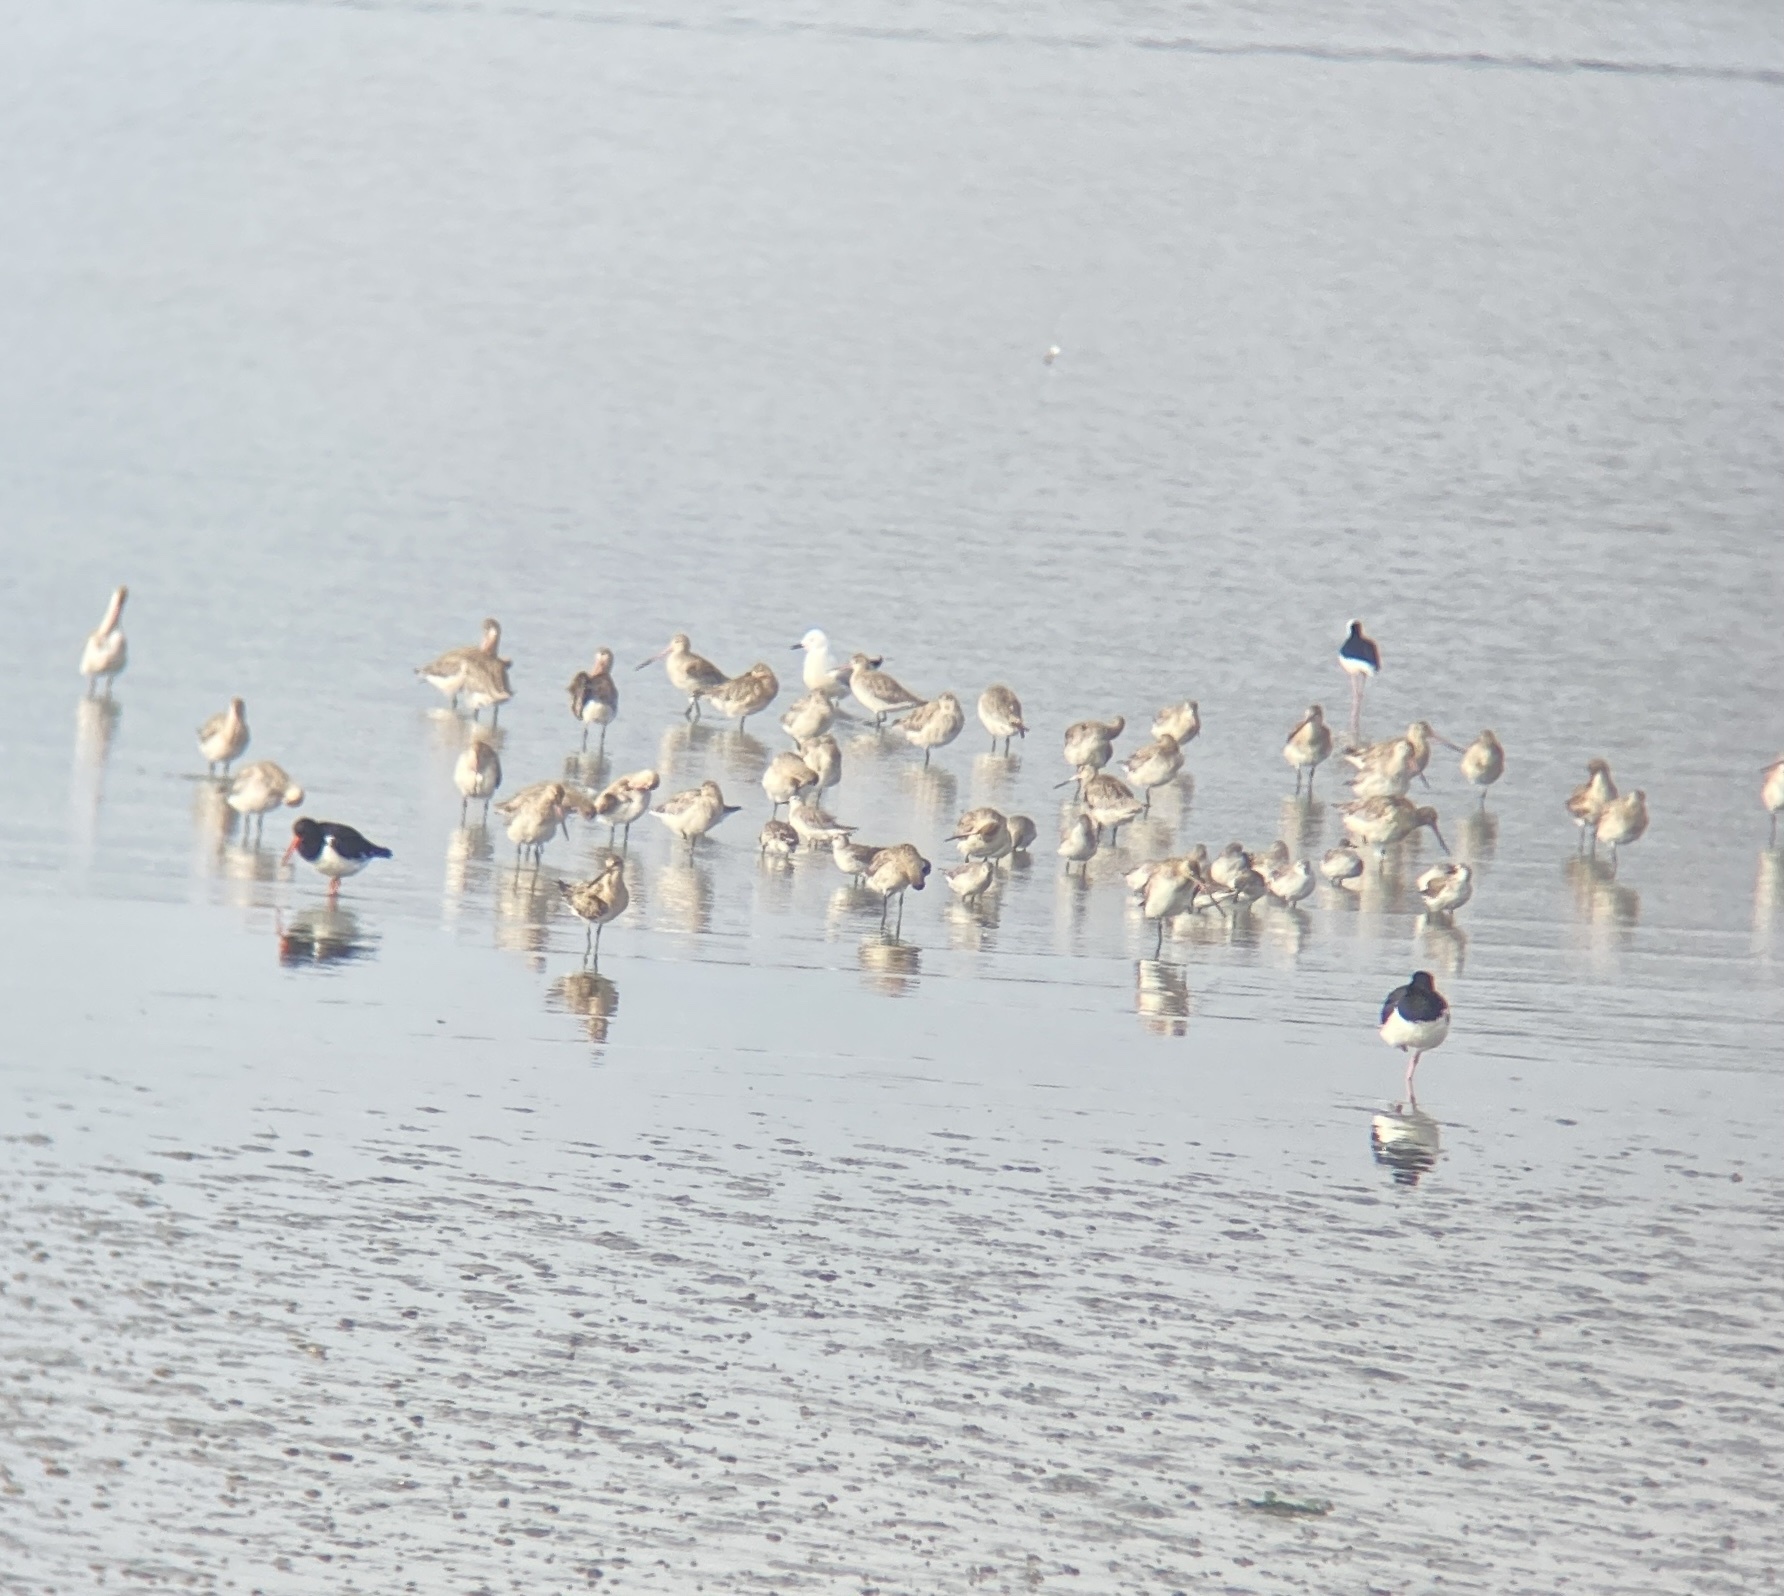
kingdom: Animalia
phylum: Chordata
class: Aves
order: Charadriiformes
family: Scolopacidae
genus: Calidris
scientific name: Calidris canutus
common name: Red knot
